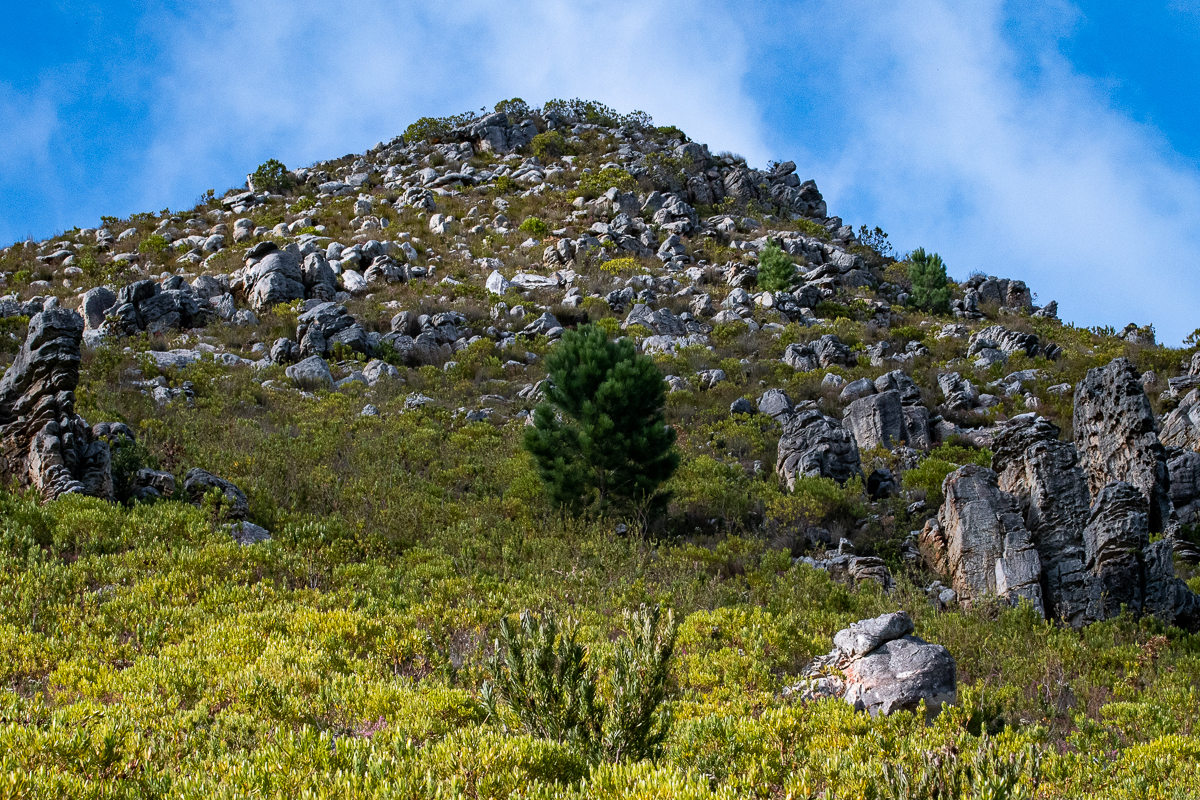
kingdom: Plantae
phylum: Tracheophyta
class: Pinopsida
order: Pinales
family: Pinaceae
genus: Pinus
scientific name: Pinus pinaster
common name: Maritime pine
